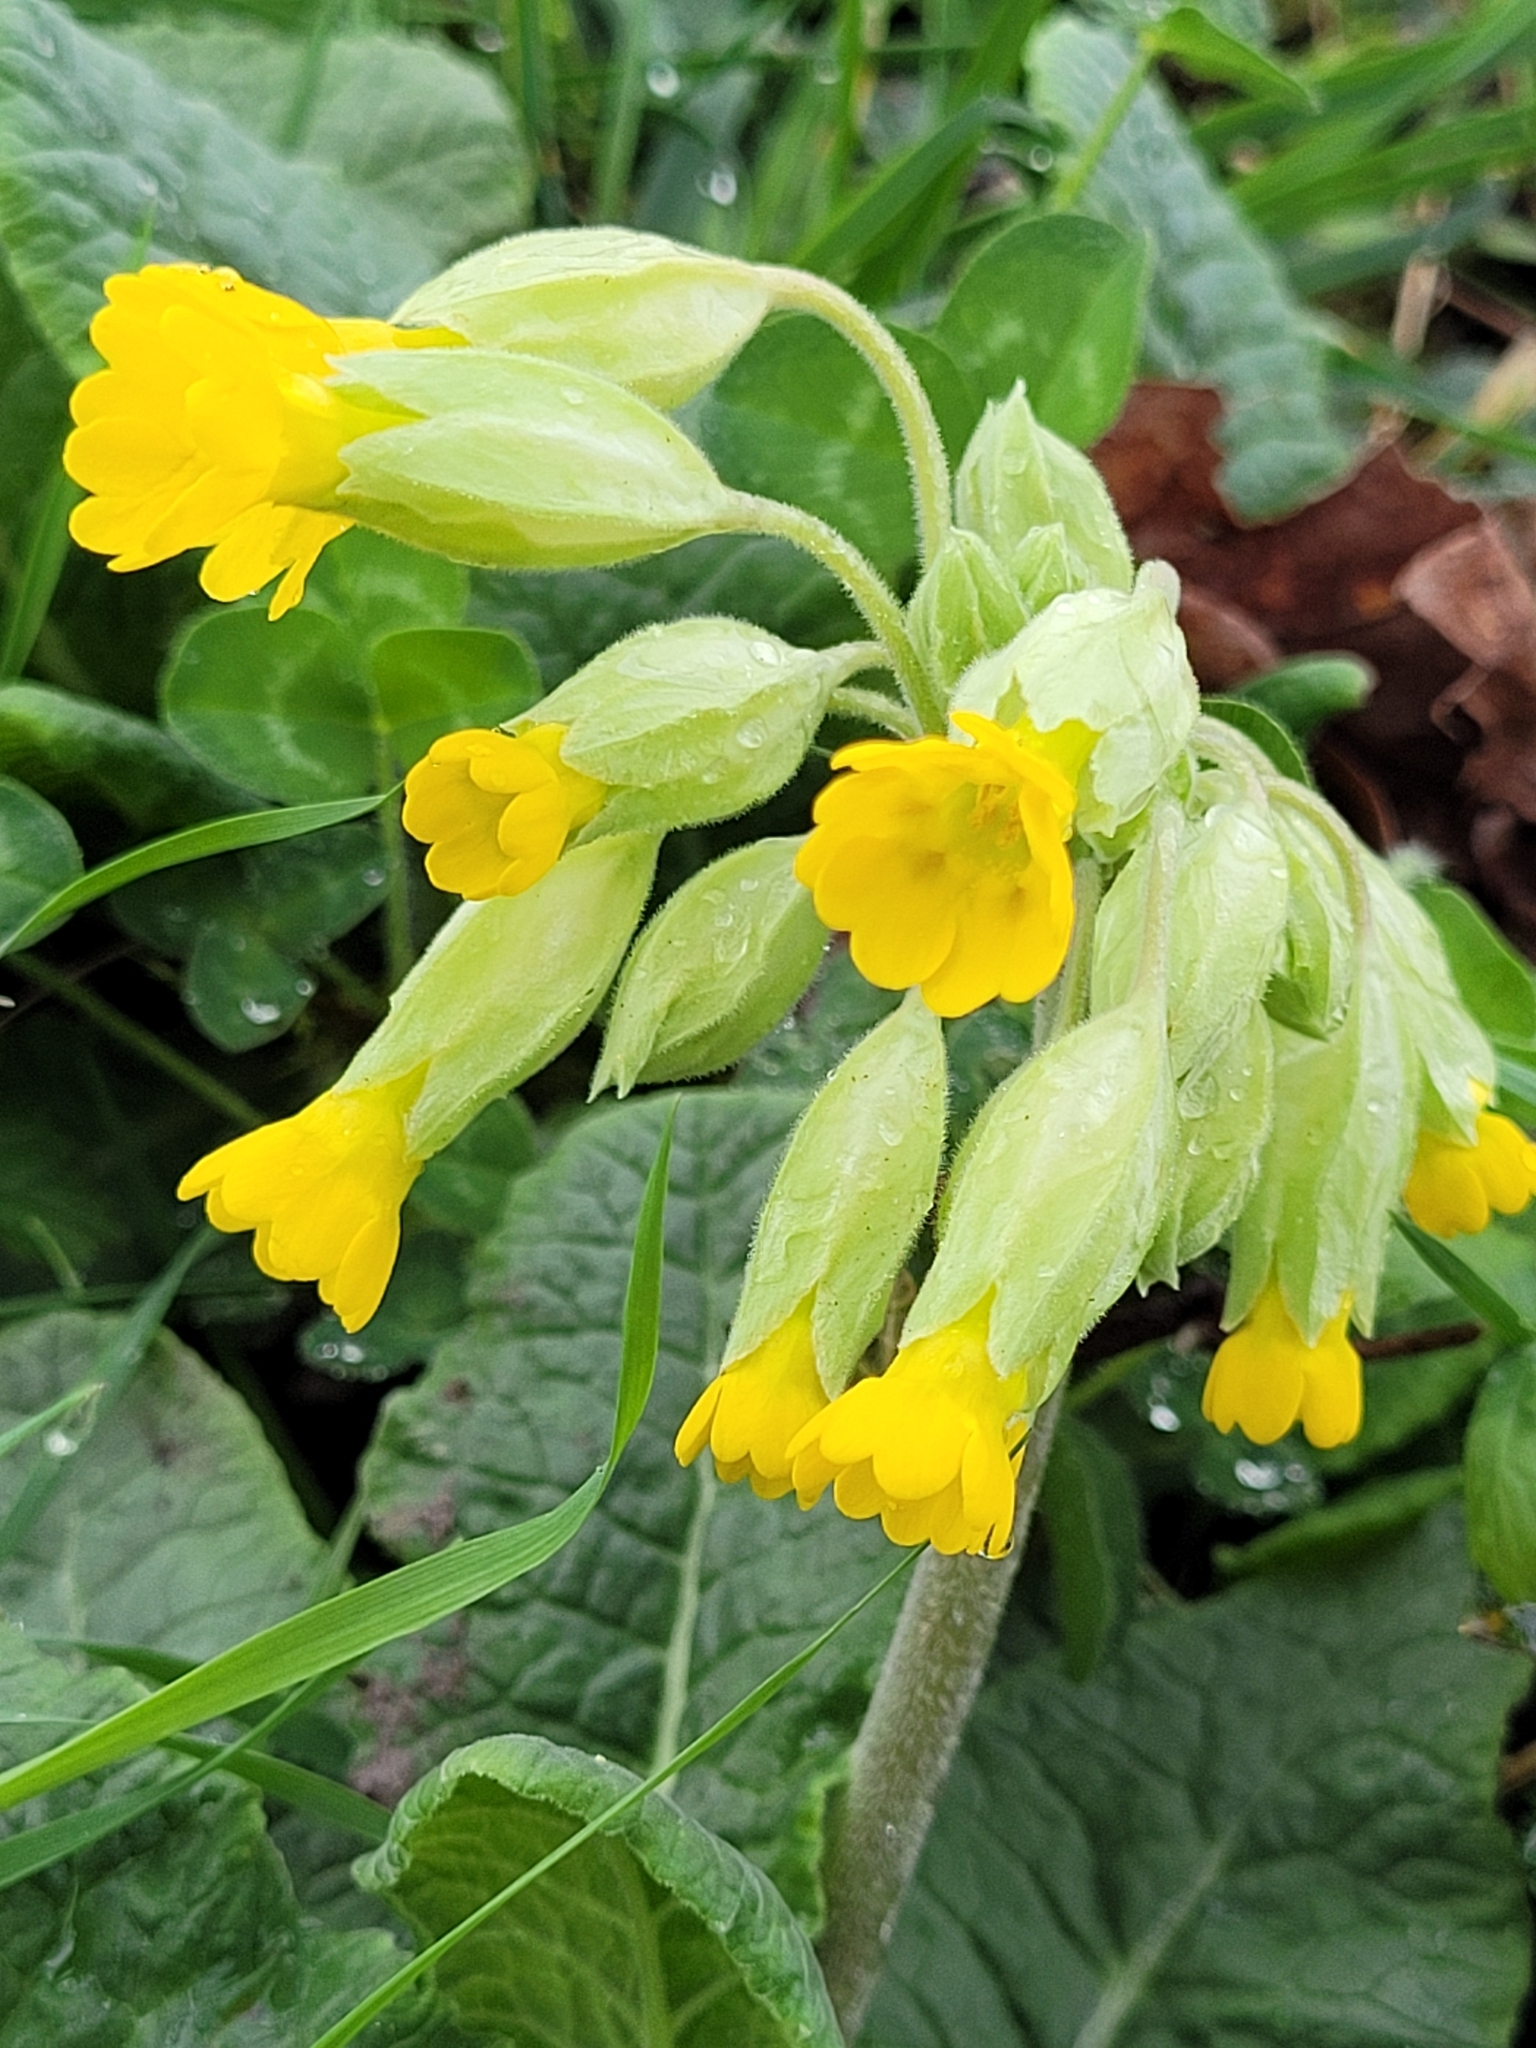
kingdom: Plantae
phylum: Tracheophyta
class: Magnoliopsida
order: Ericales
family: Primulaceae
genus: Primula
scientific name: Primula veris
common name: Cowslip
